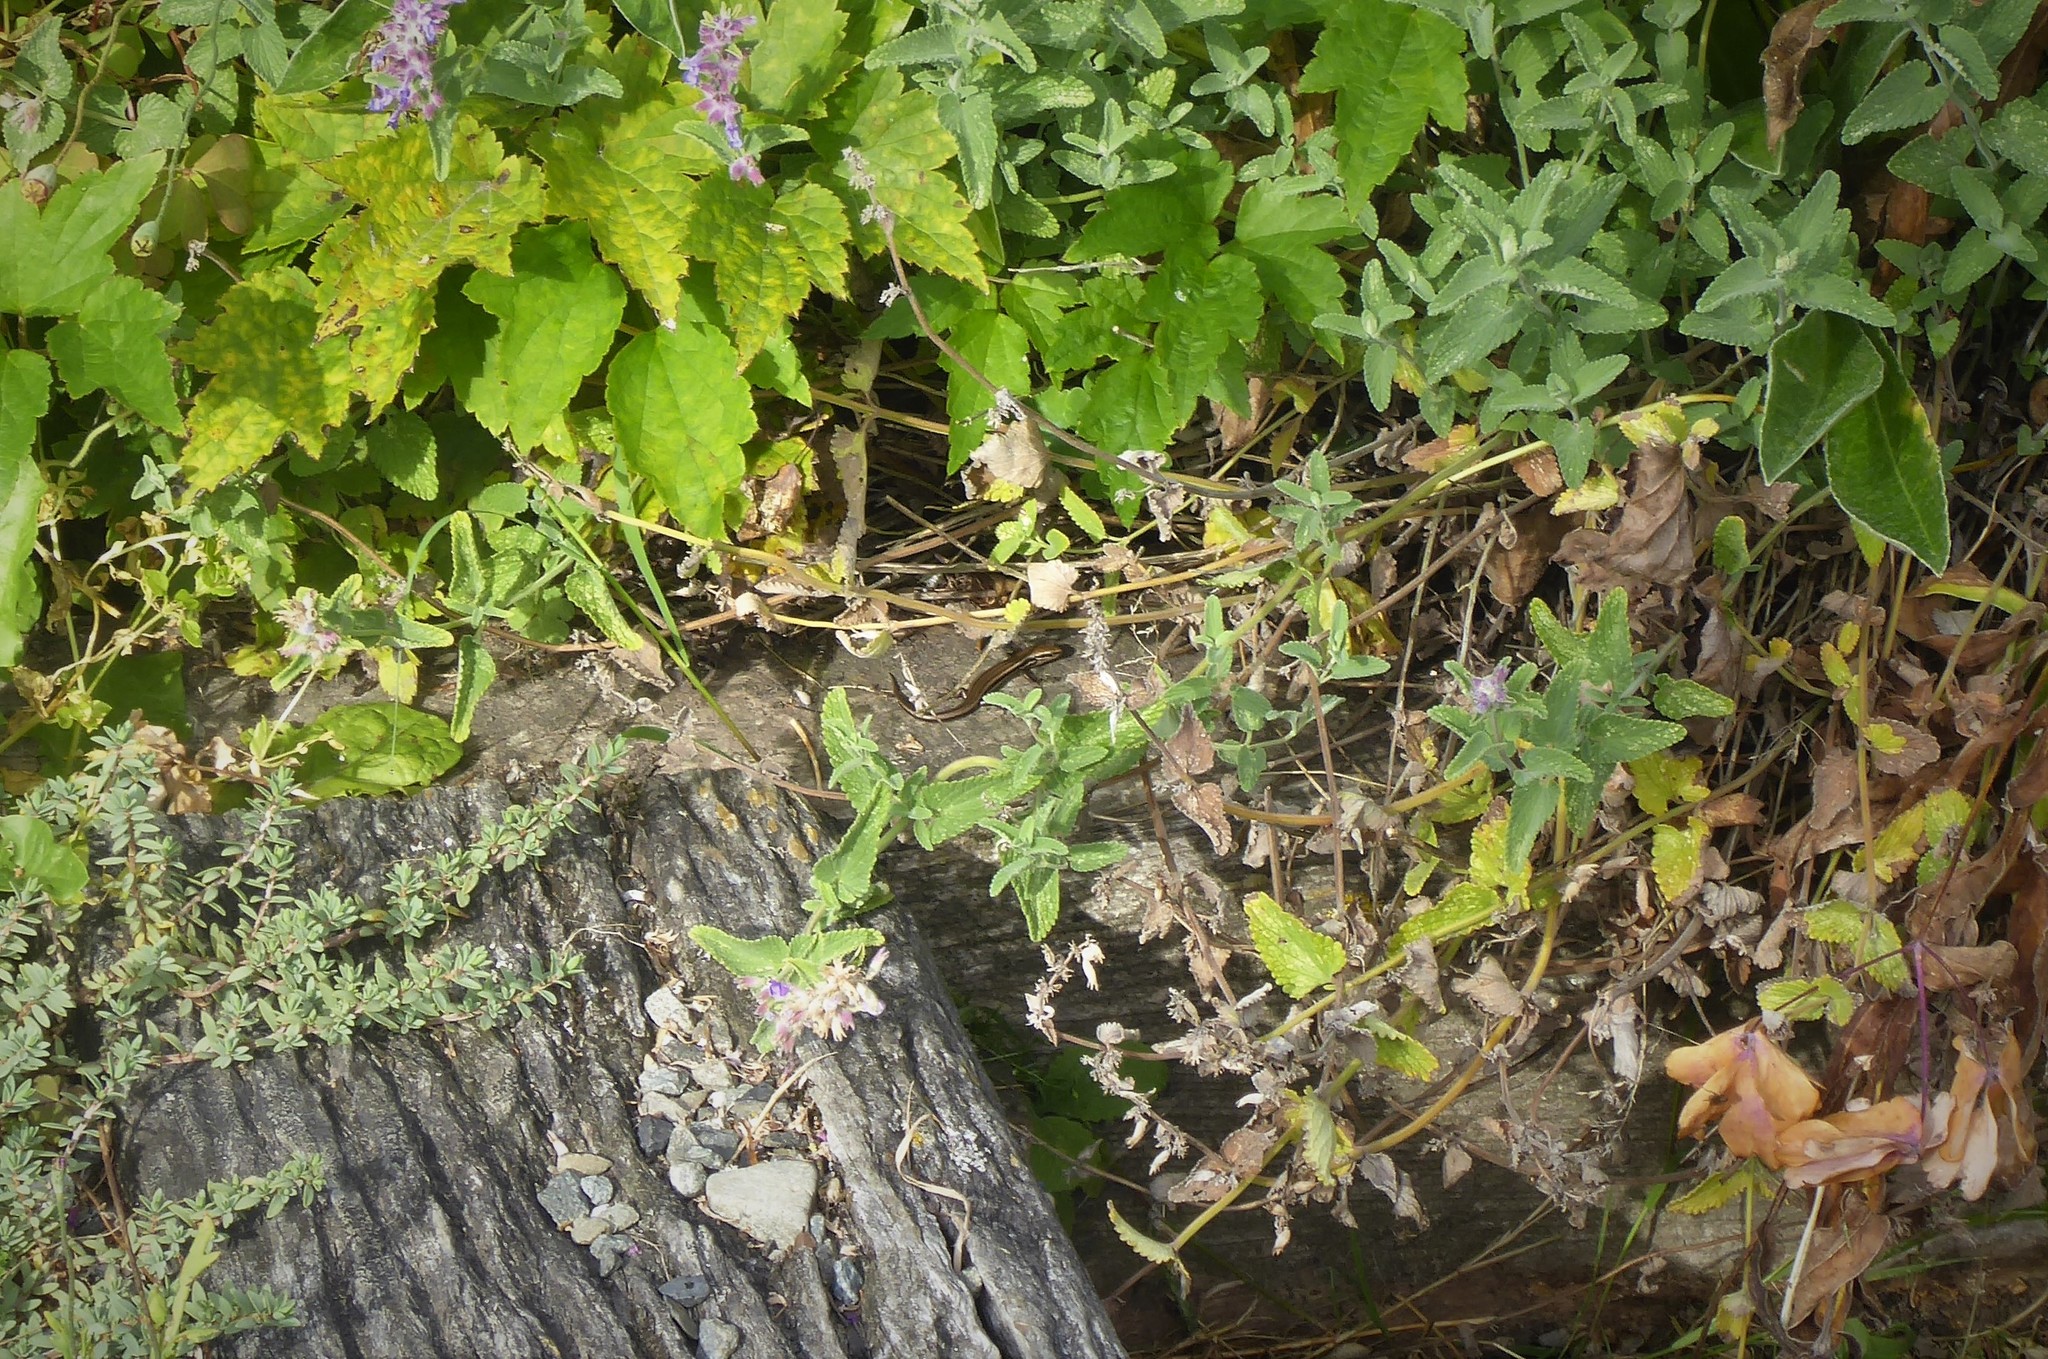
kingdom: Animalia
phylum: Chordata
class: Squamata
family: Scincidae
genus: Oligosoma
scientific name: Oligosoma polychroma
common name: Common new zealand skink
